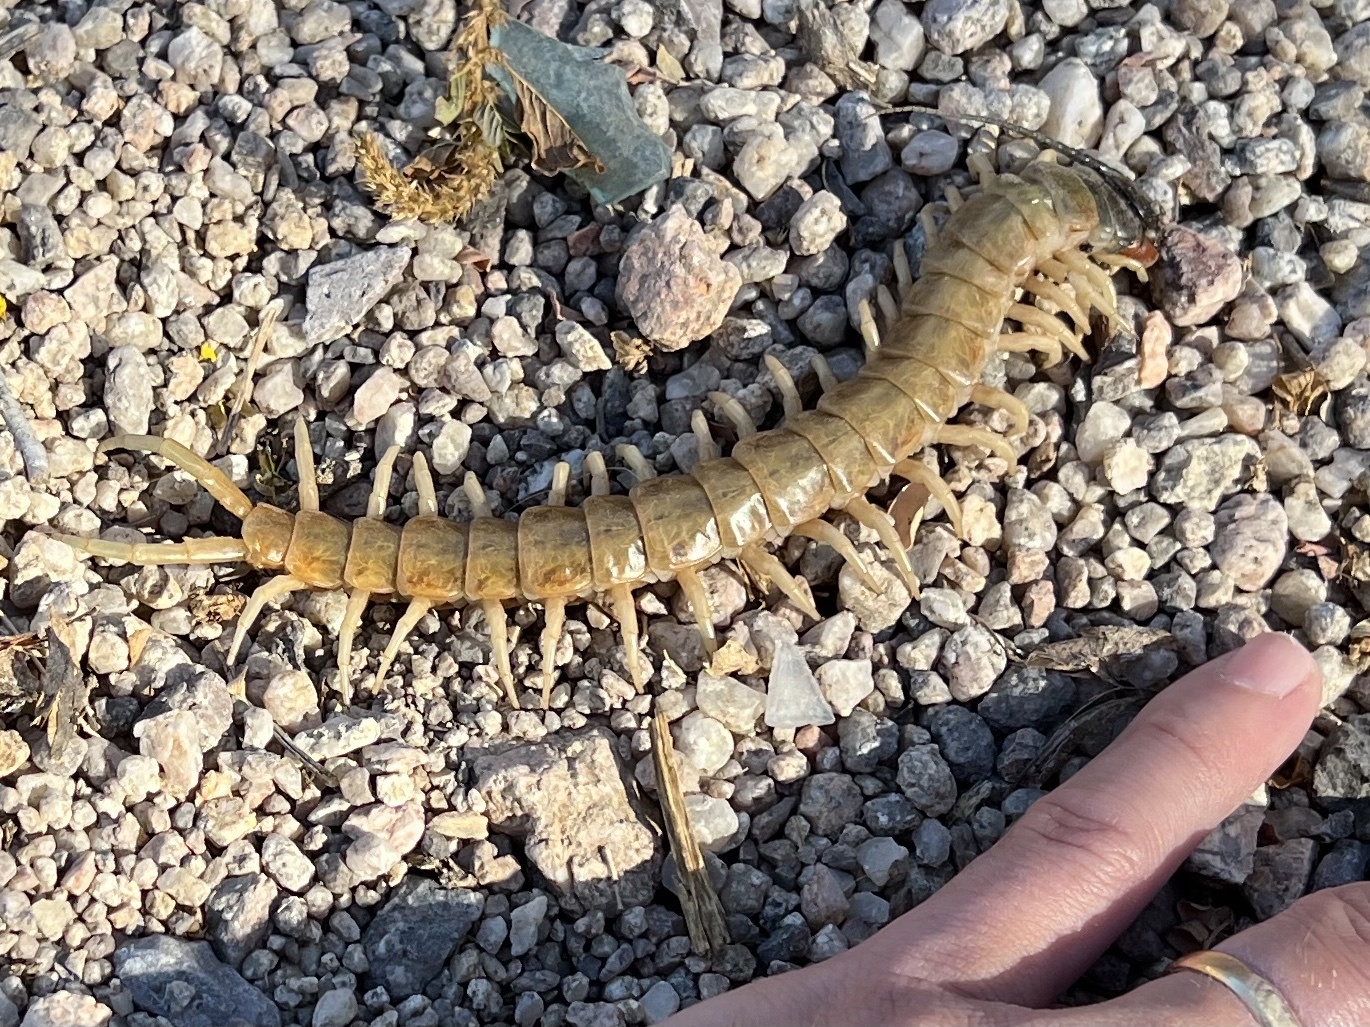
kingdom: Animalia
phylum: Arthropoda
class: Chilopoda
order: Scolopendromorpha
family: Scolopendridae
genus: Scolopendra
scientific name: Scolopendra aztecorum
